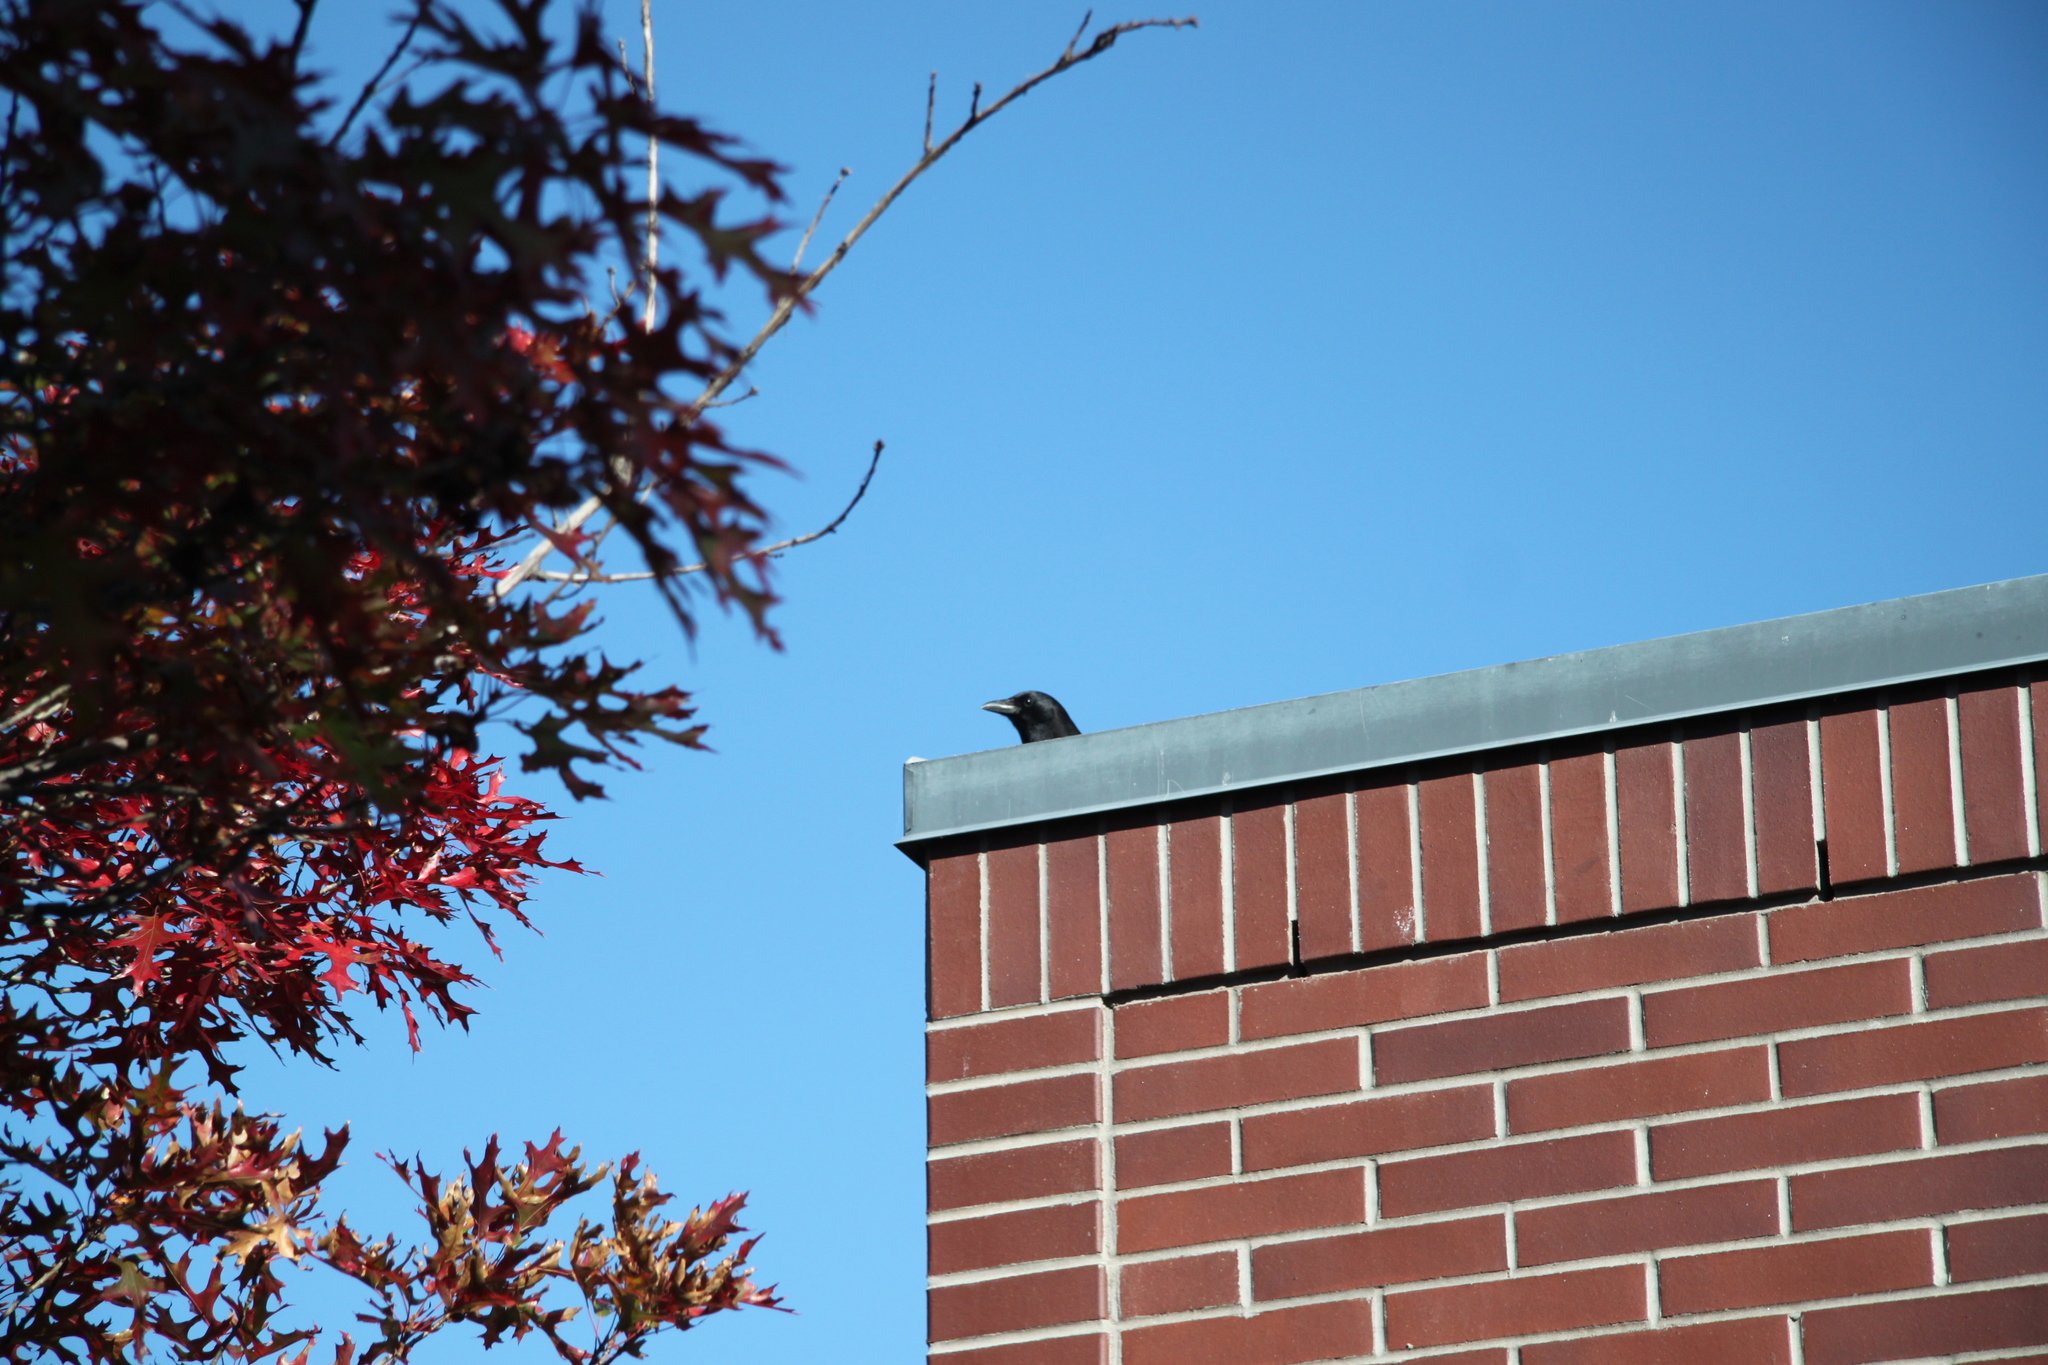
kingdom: Animalia
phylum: Chordata
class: Aves
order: Passeriformes
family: Corvidae
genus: Corvus
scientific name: Corvus brachyrhynchos
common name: American crow
